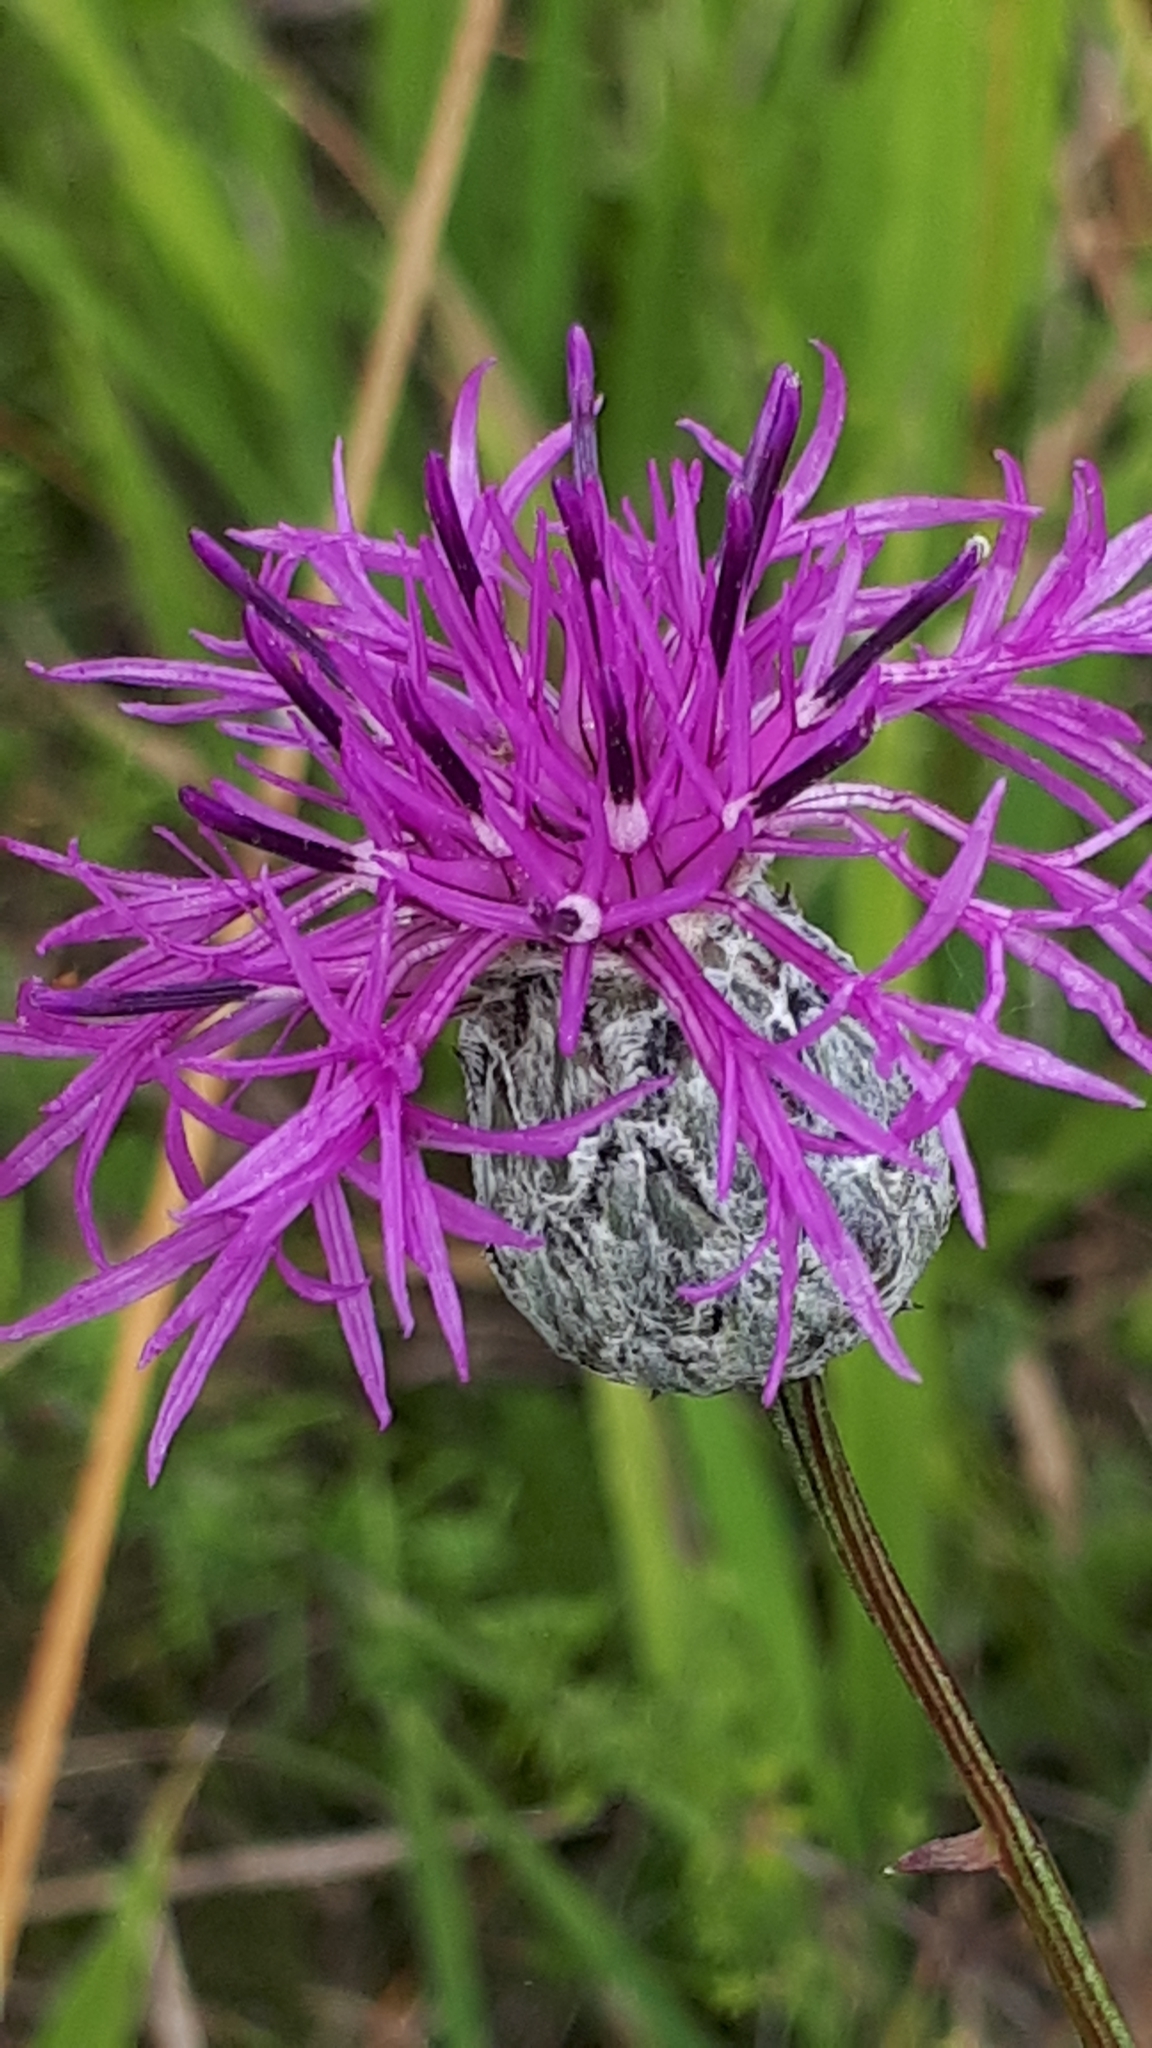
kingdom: Plantae
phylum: Tracheophyta
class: Magnoliopsida
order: Asterales
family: Asteraceae
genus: Centaurea
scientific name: Centaurea scabiosa
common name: Greater knapweed
